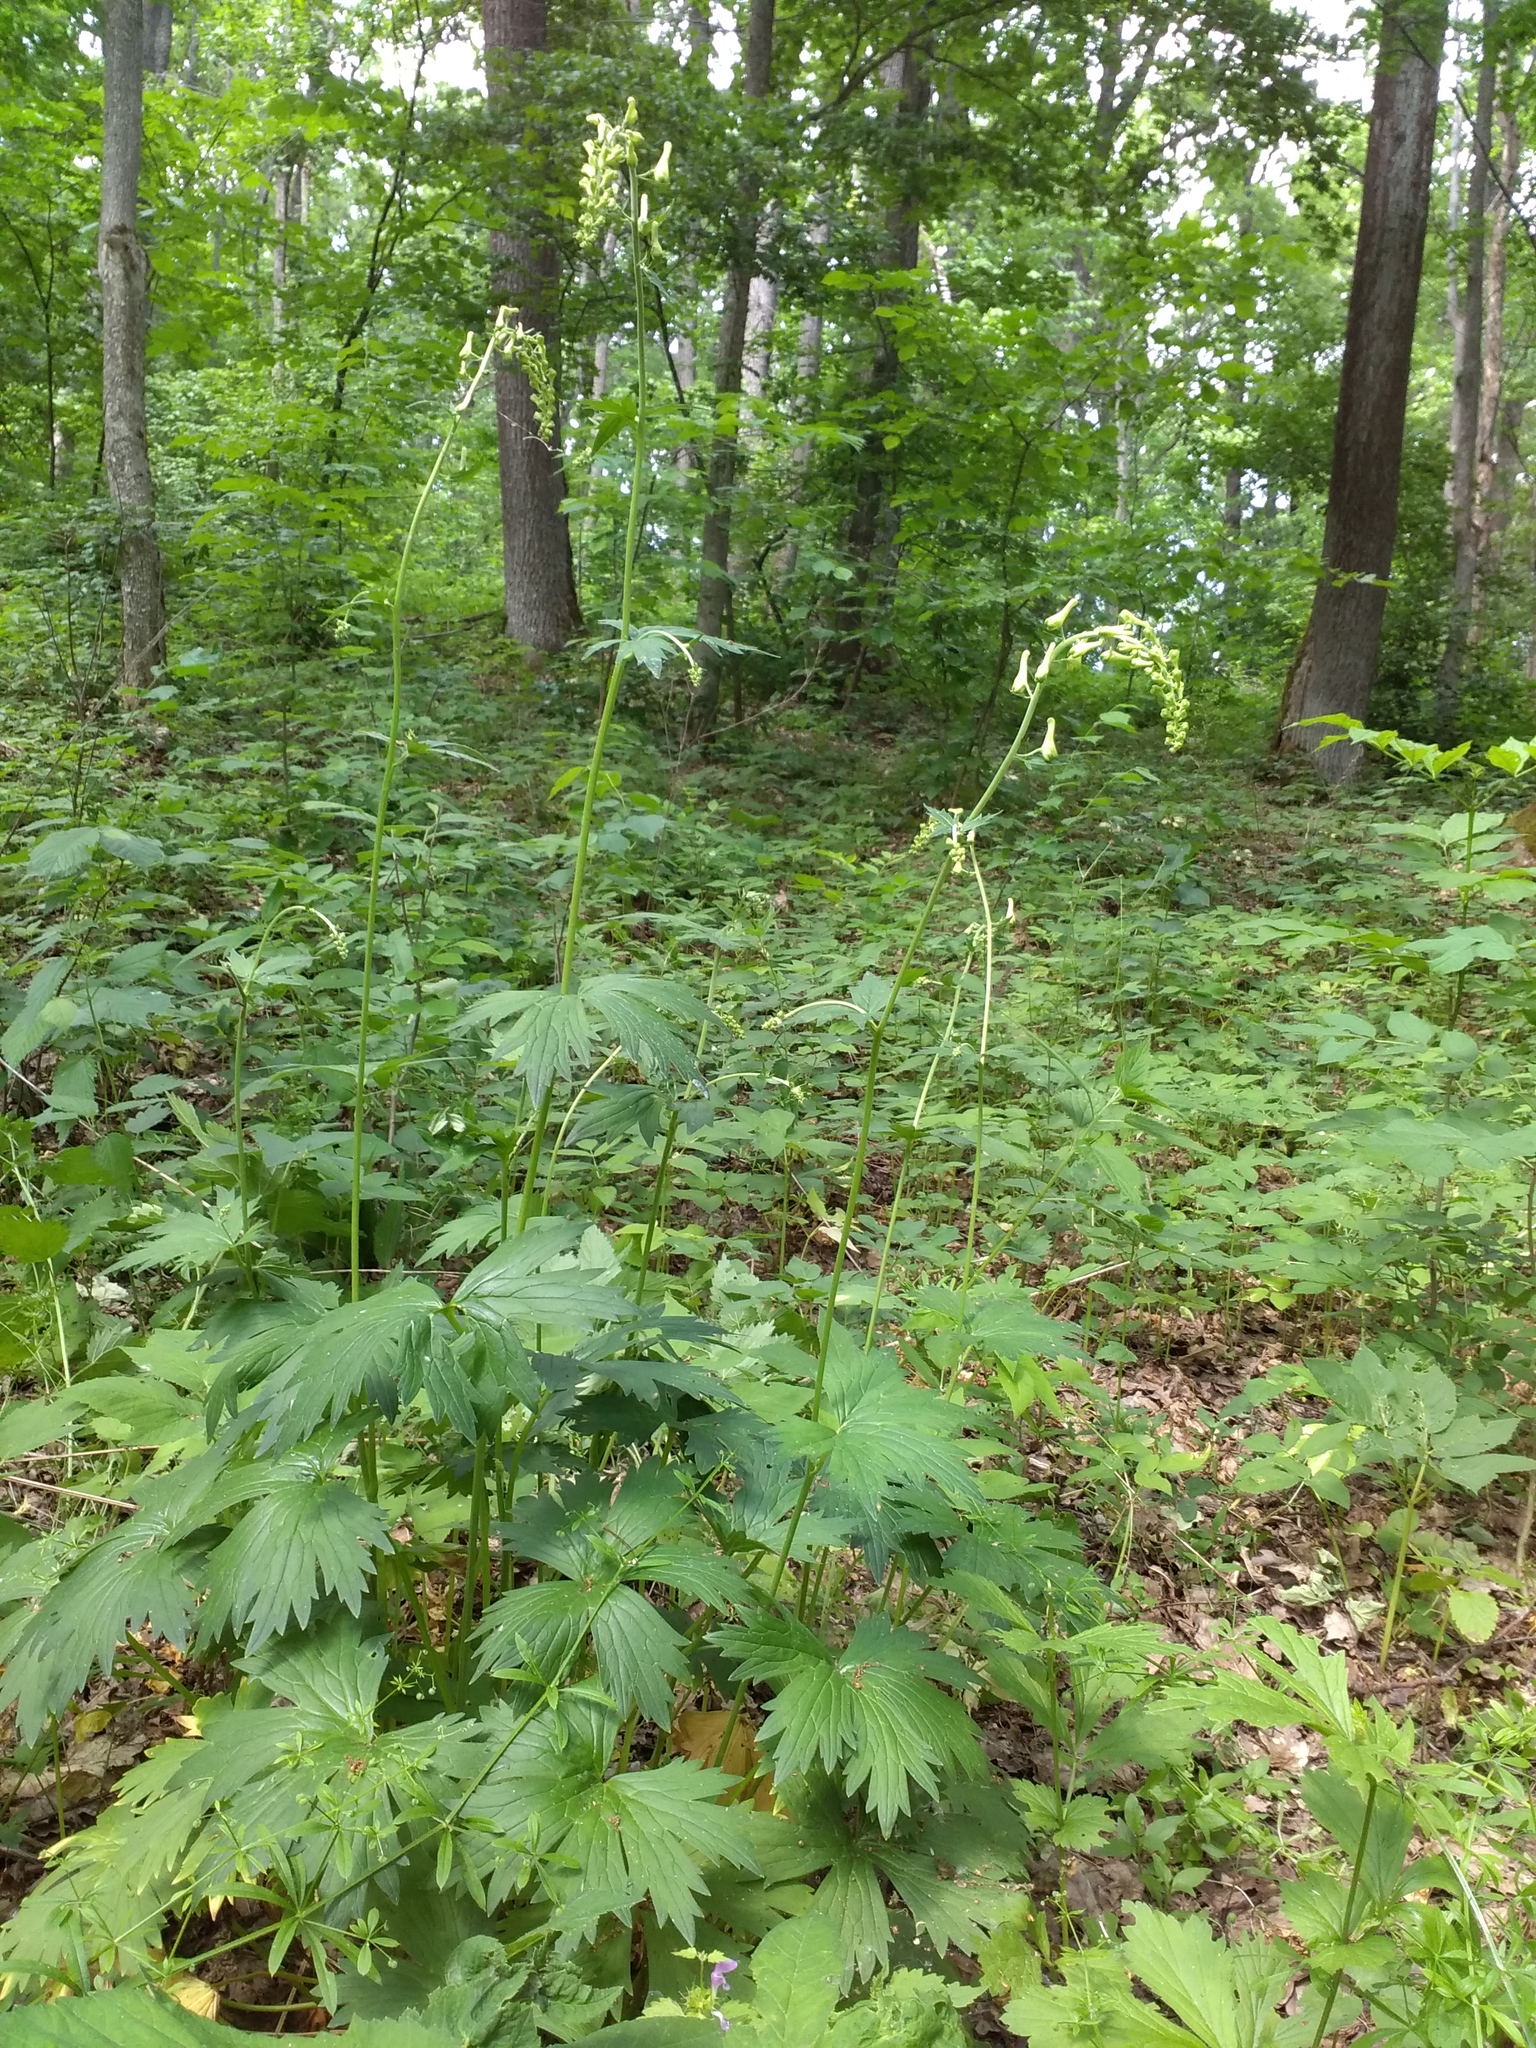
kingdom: Plantae
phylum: Tracheophyta
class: Magnoliopsida
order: Ranunculales
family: Ranunculaceae
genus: Aconitum
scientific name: Aconitum lasiostomum
